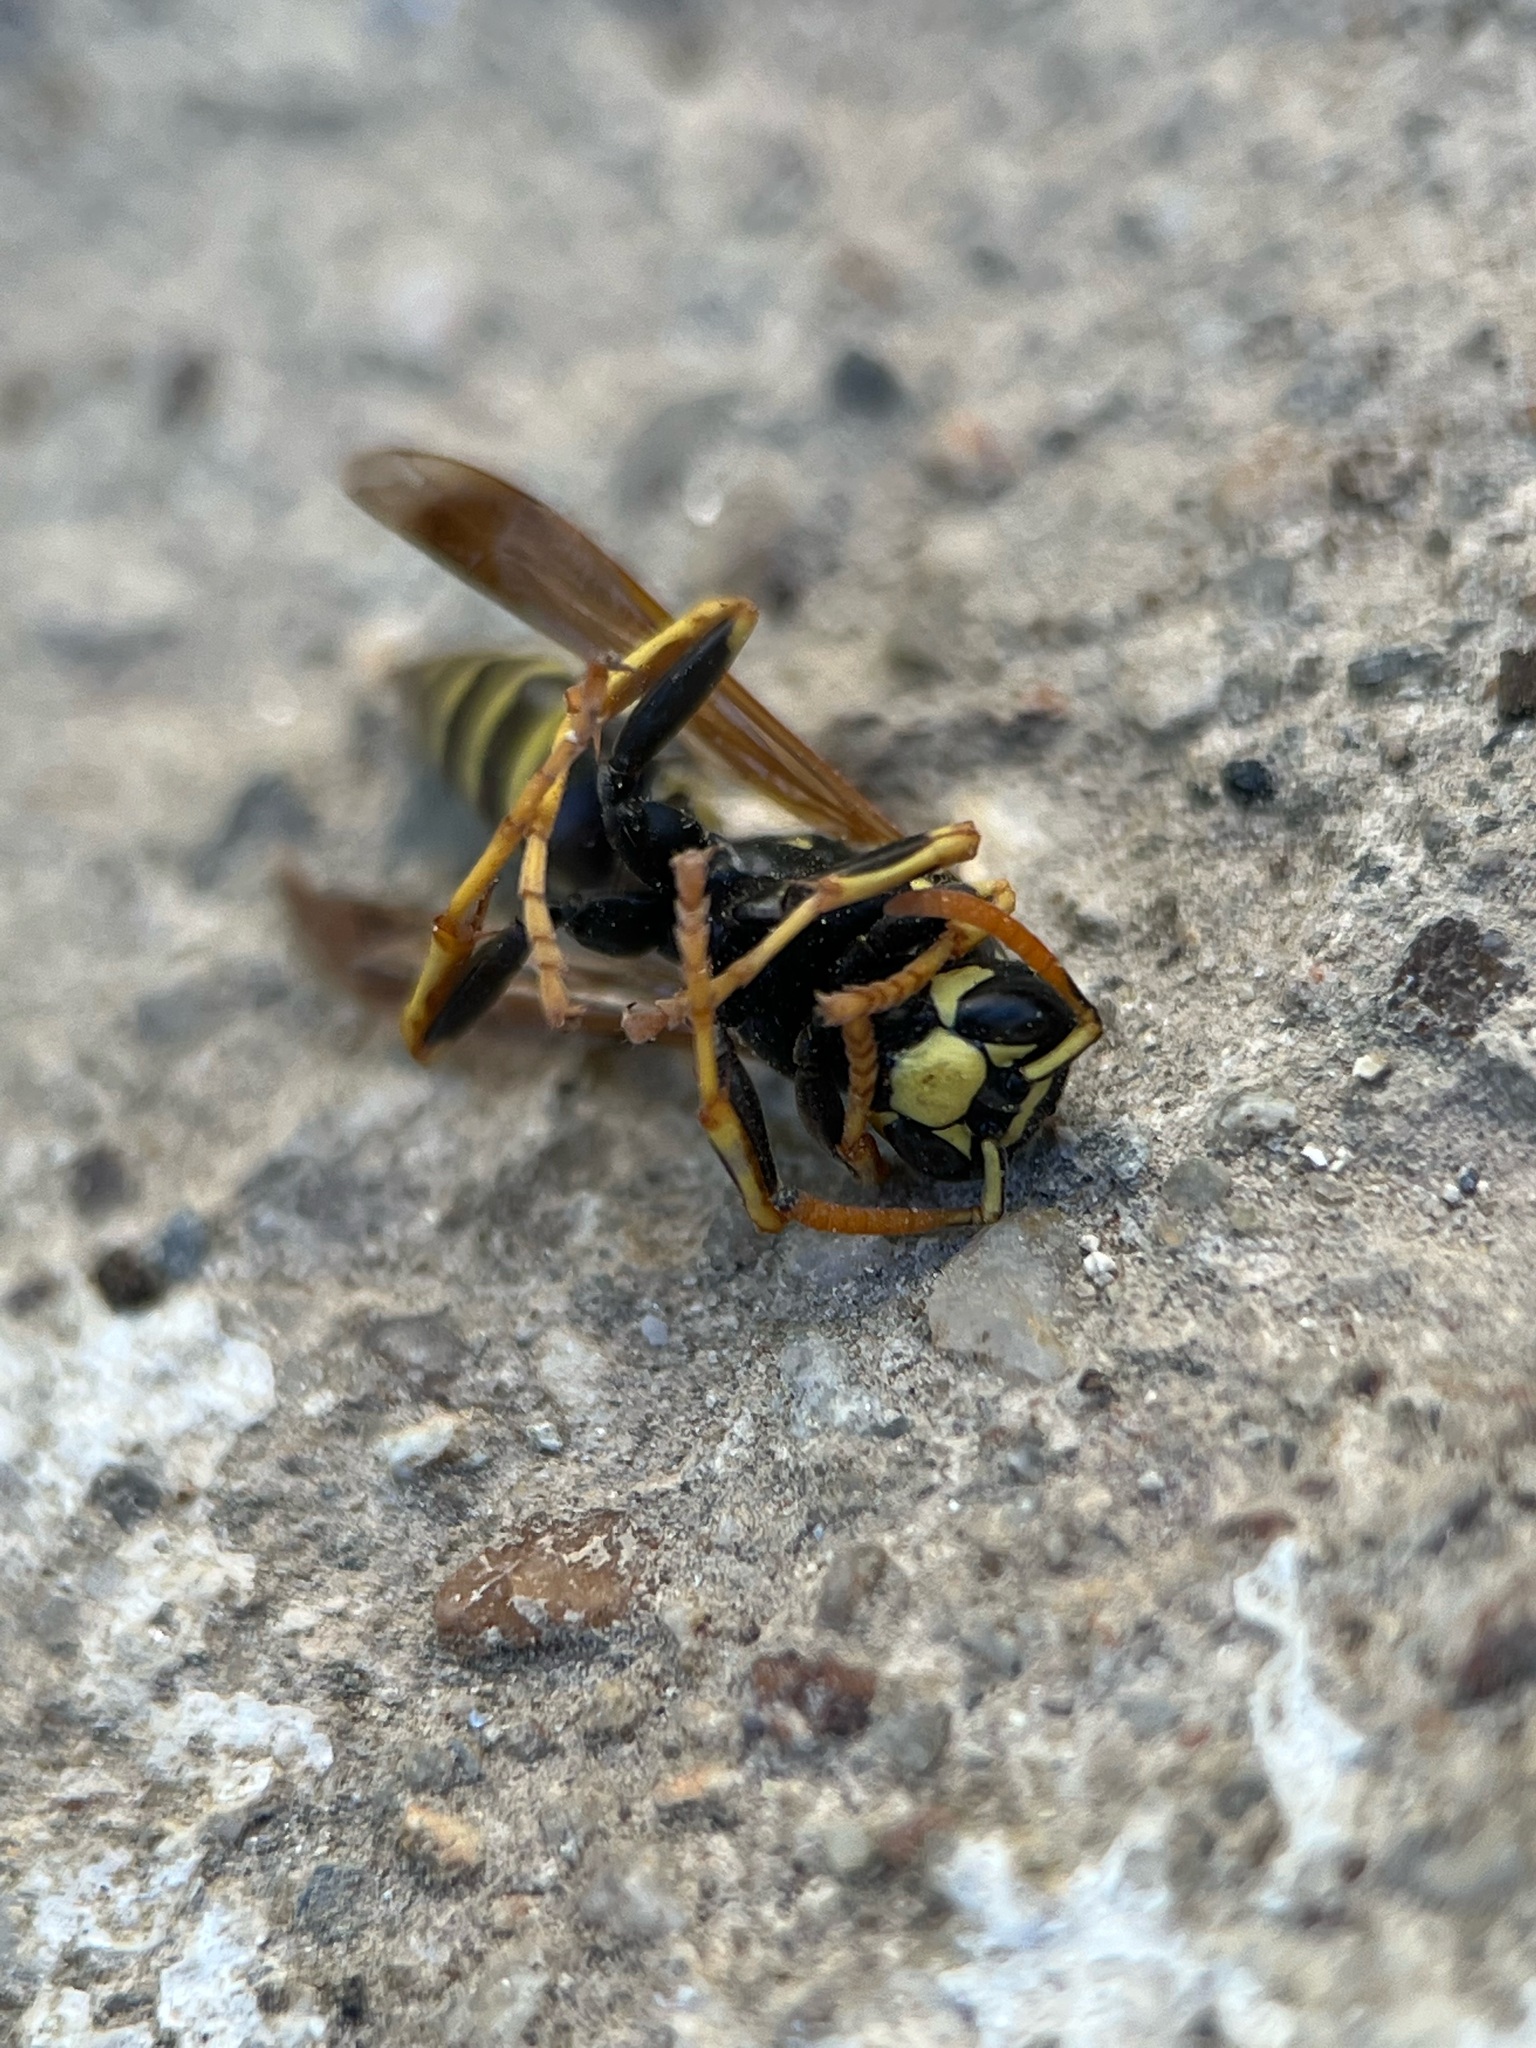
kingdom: Animalia
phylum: Arthropoda
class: Insecta
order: Hymenoptera
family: Eumenidae
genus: Polistes
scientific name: Polistes dominula
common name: Paper wasp
